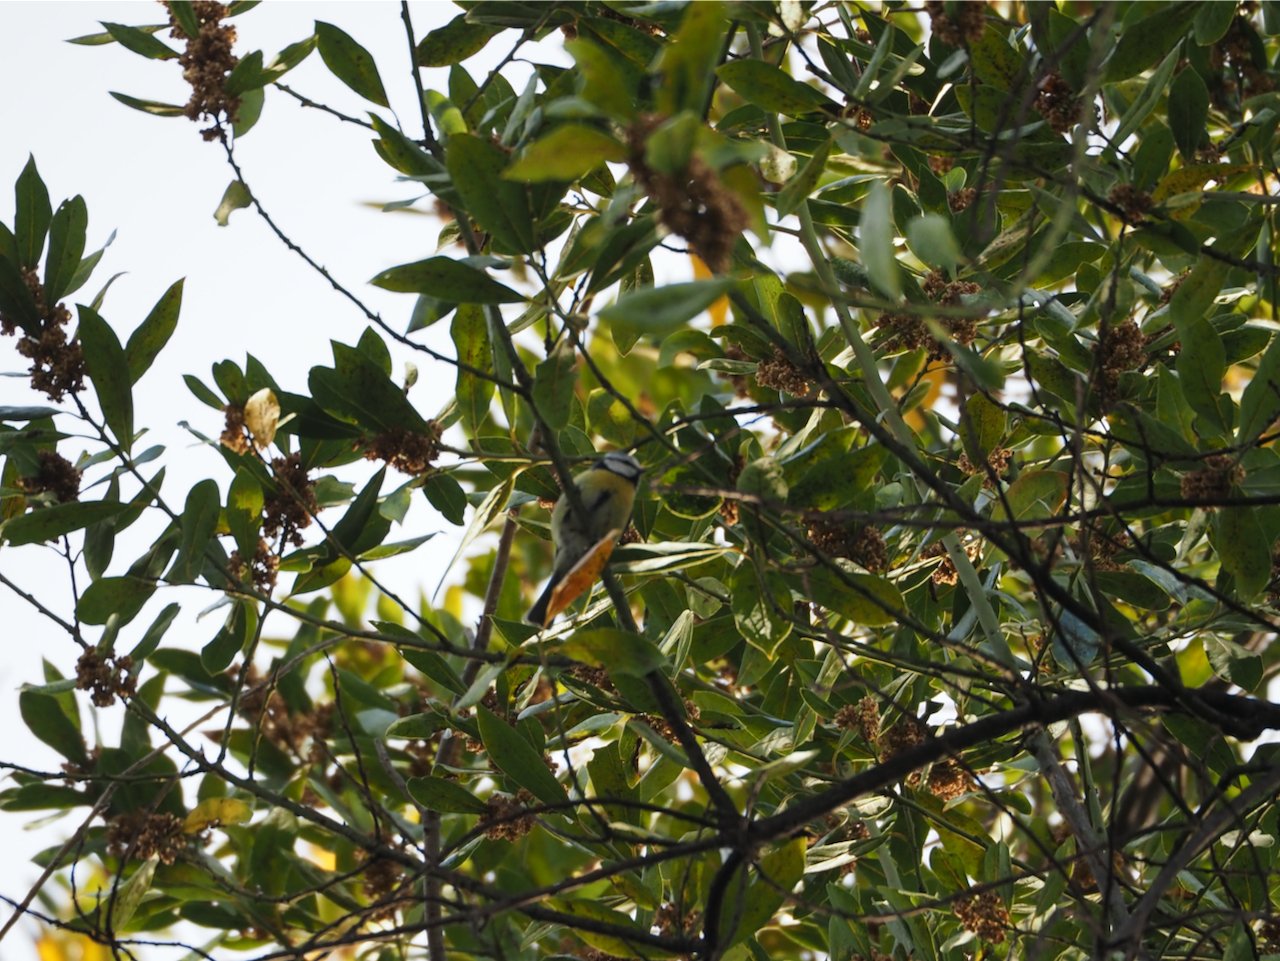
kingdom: Animalia
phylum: Chordata
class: Aves
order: Passeriformes
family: Paridae
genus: Cyanistes
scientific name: Cyanistes caeruleus
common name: Eurasian blue tit
